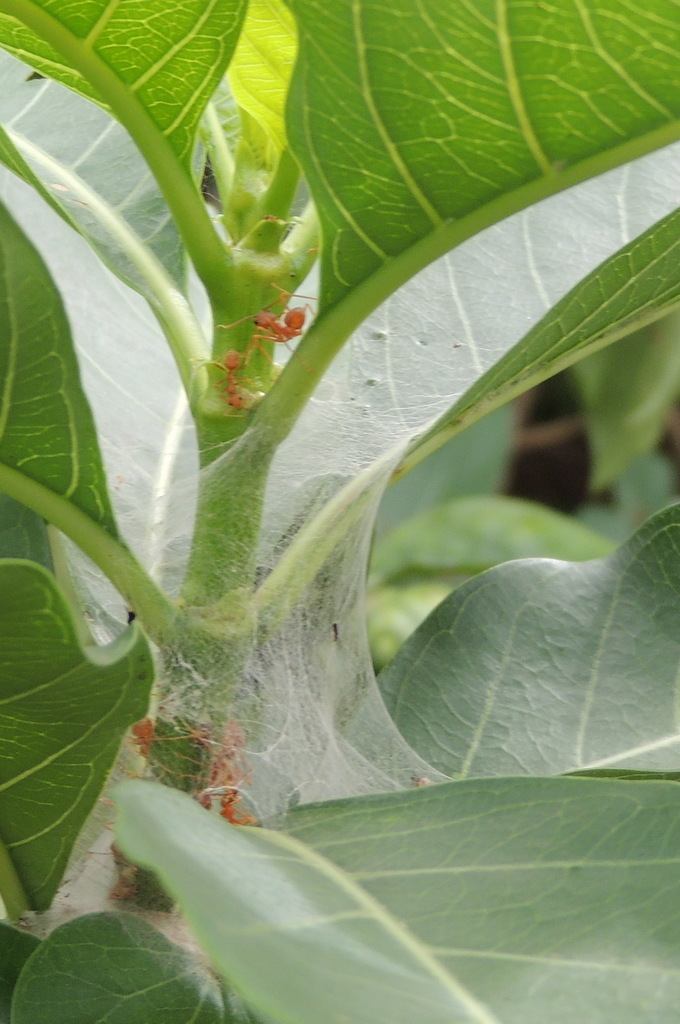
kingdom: Animalia
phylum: Arthropoda
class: Insecta
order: Hymenoptera
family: Formicidae
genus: Oecophylla
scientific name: Oecophylla smaragdina
